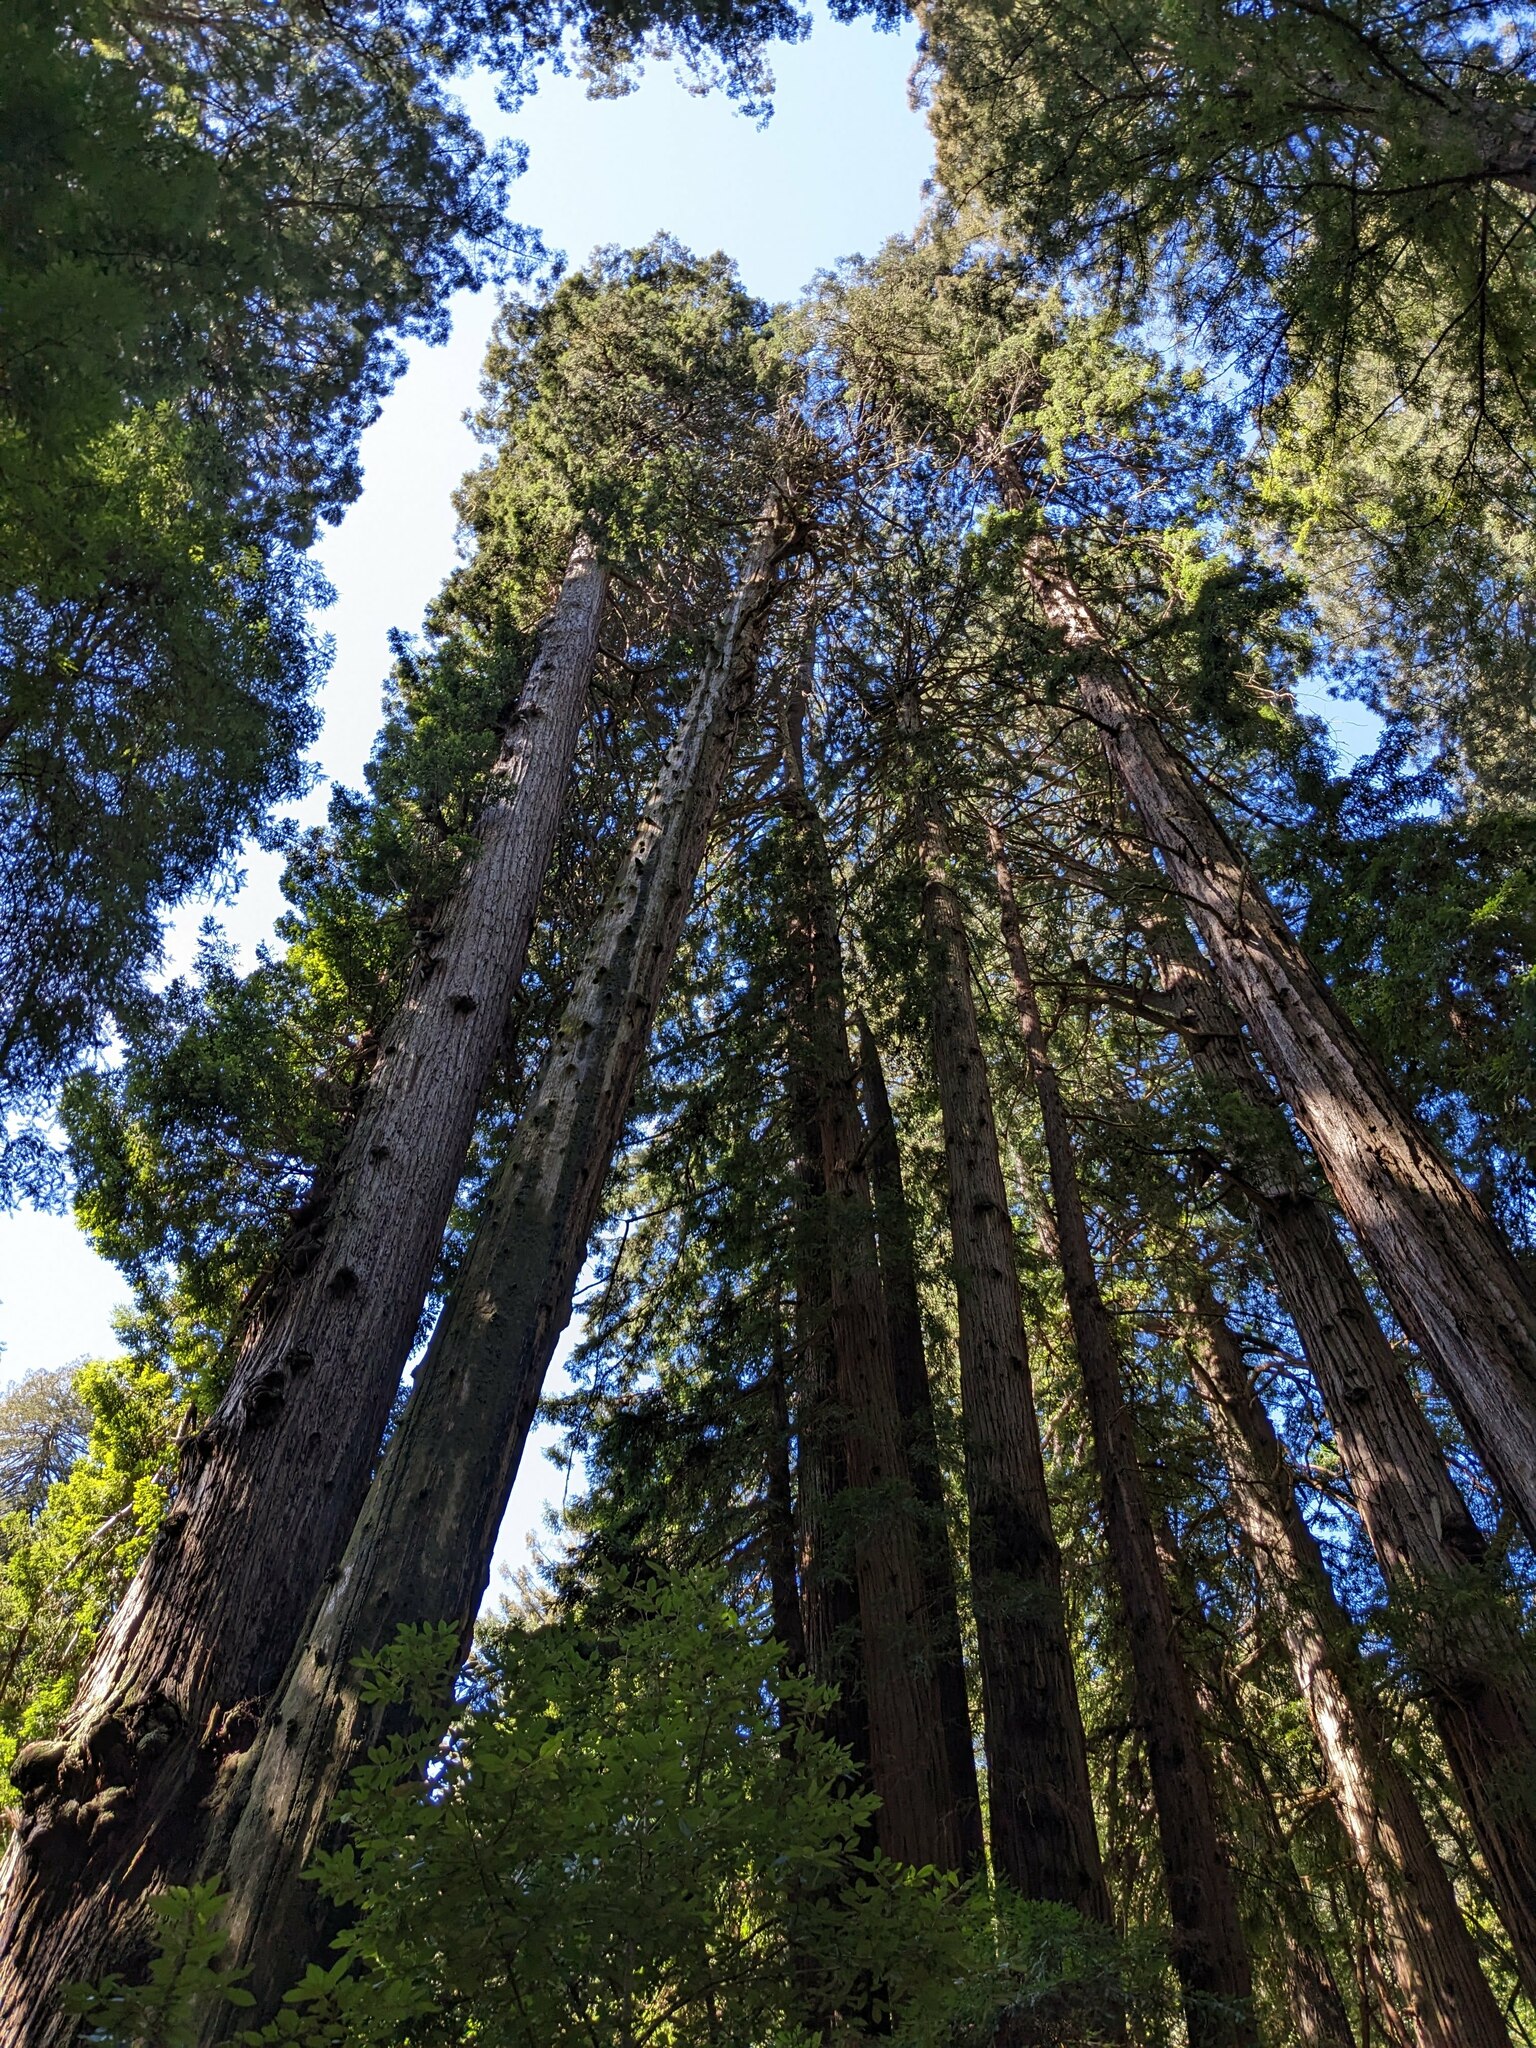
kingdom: Plantae
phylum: Tracheophyta
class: Pinopsida
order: Pinales
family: Cupressaceae
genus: Sequoia
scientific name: Sequoia sempervirens
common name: Coast redwood
